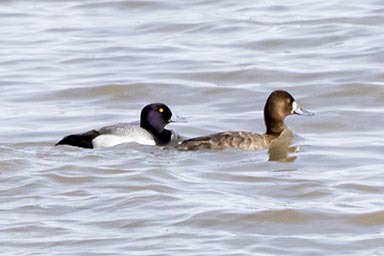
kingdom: Animalia
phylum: Chordata
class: Aves
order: Anseriformes
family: Anatidae
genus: Aythya
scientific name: Aythya marila
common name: Greater scaup
